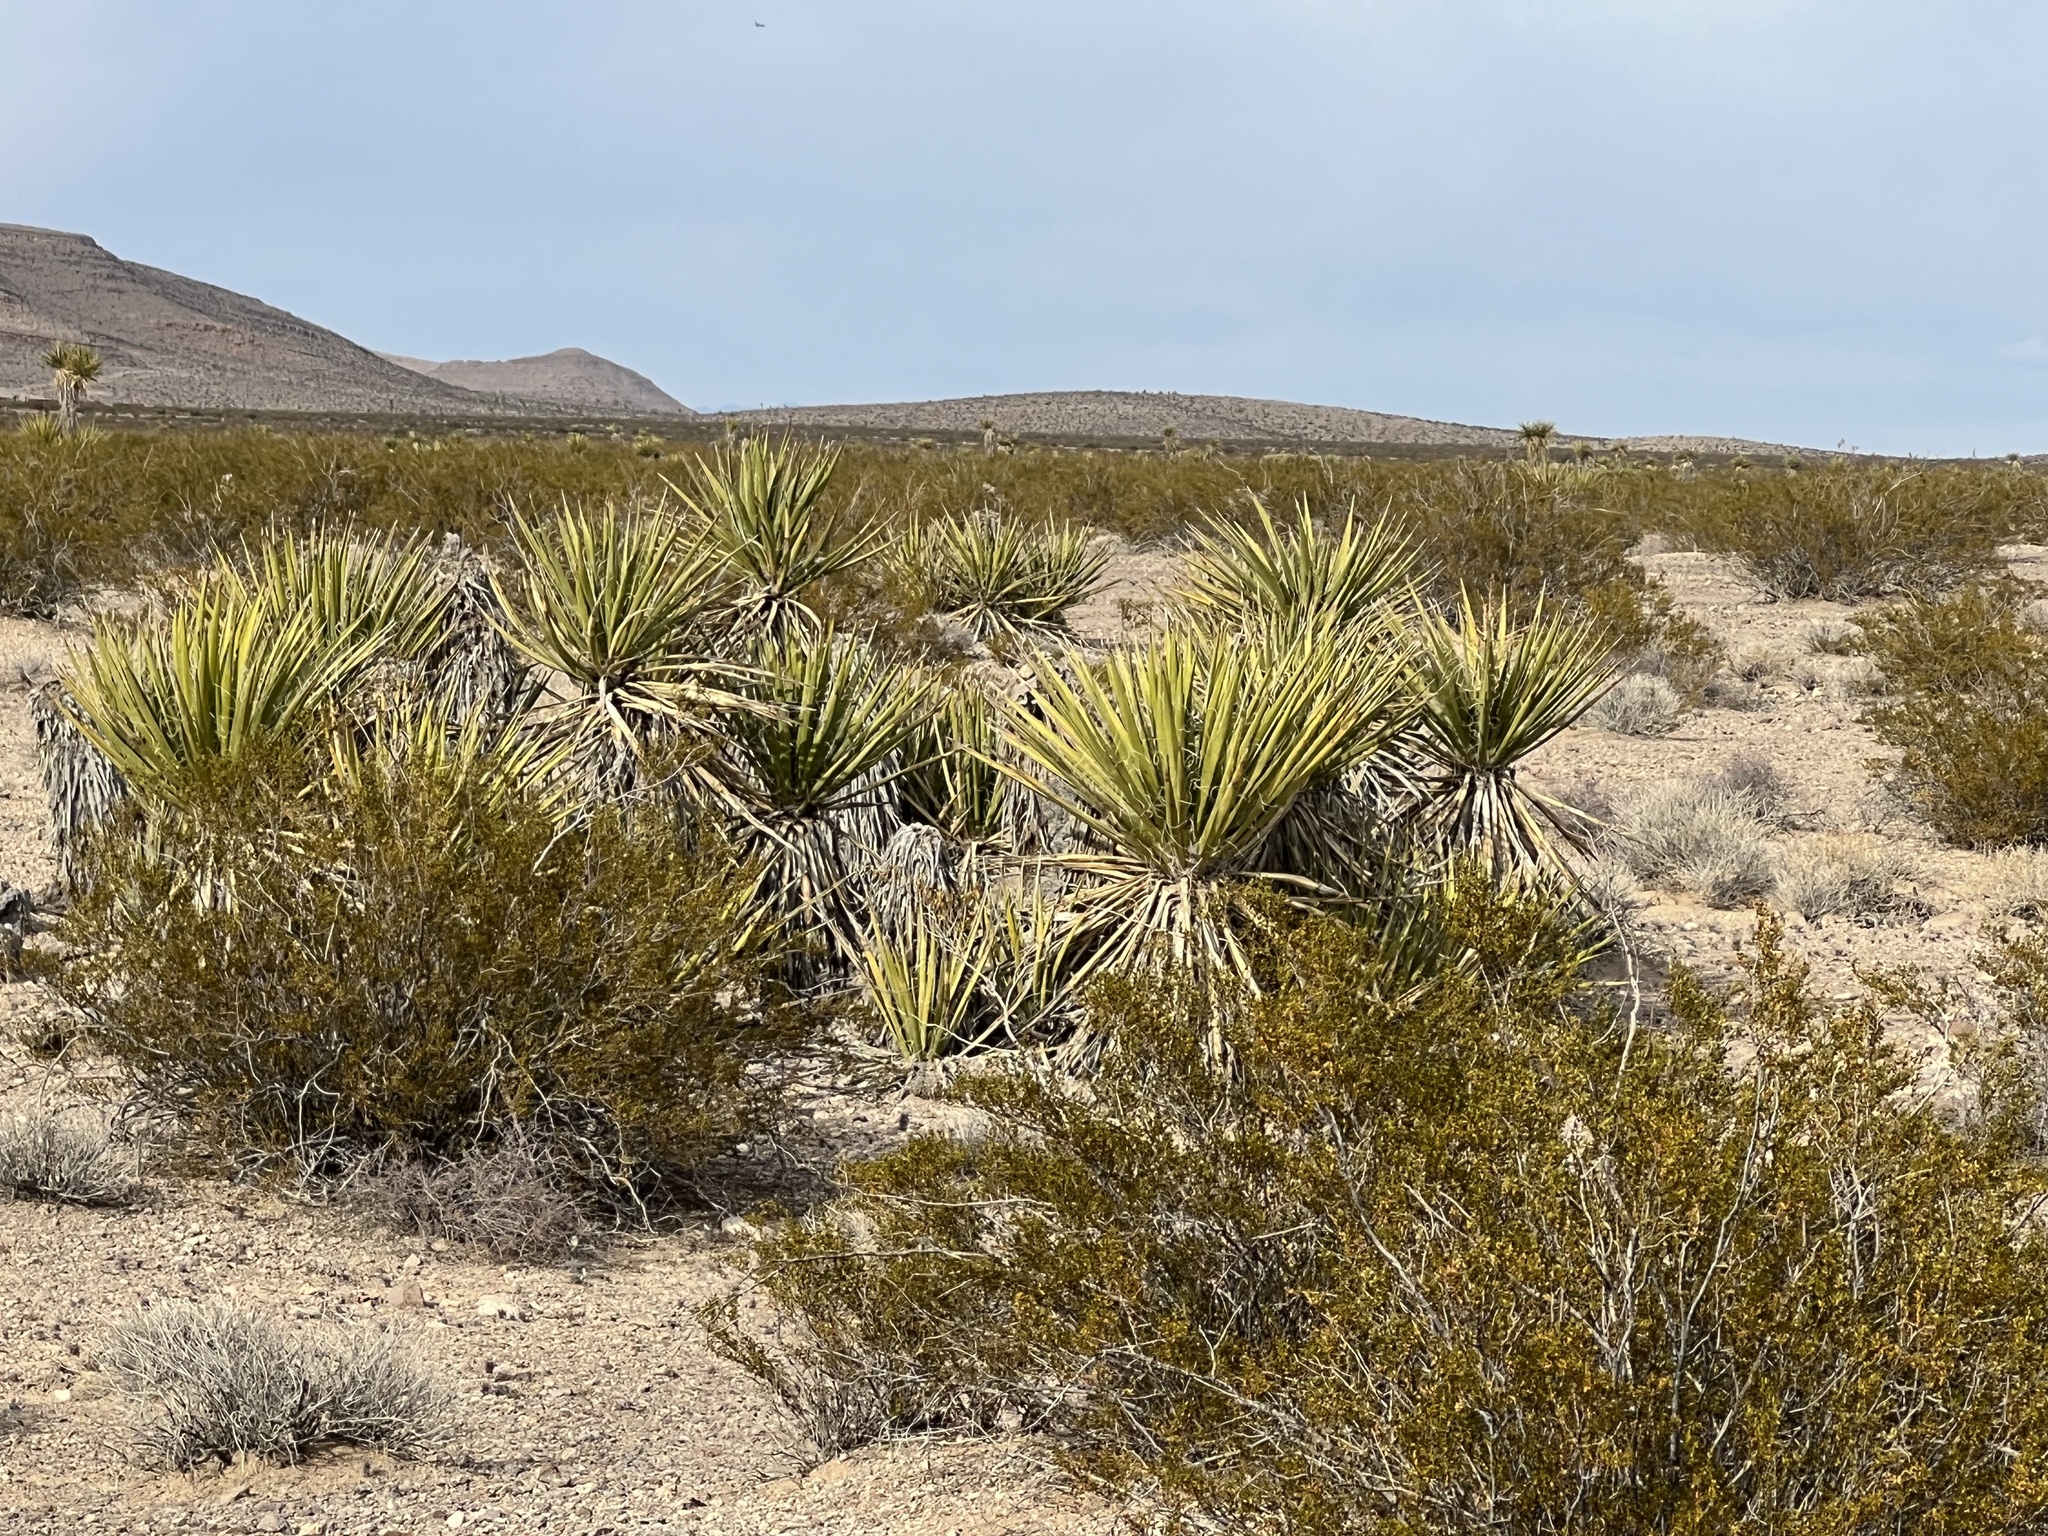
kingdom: Plantae
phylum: Tracheophyta
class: Liliopsida
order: Asparagales
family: Asparagaceae
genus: Yucca
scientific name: Yucca schidigera
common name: Mojave yucca
